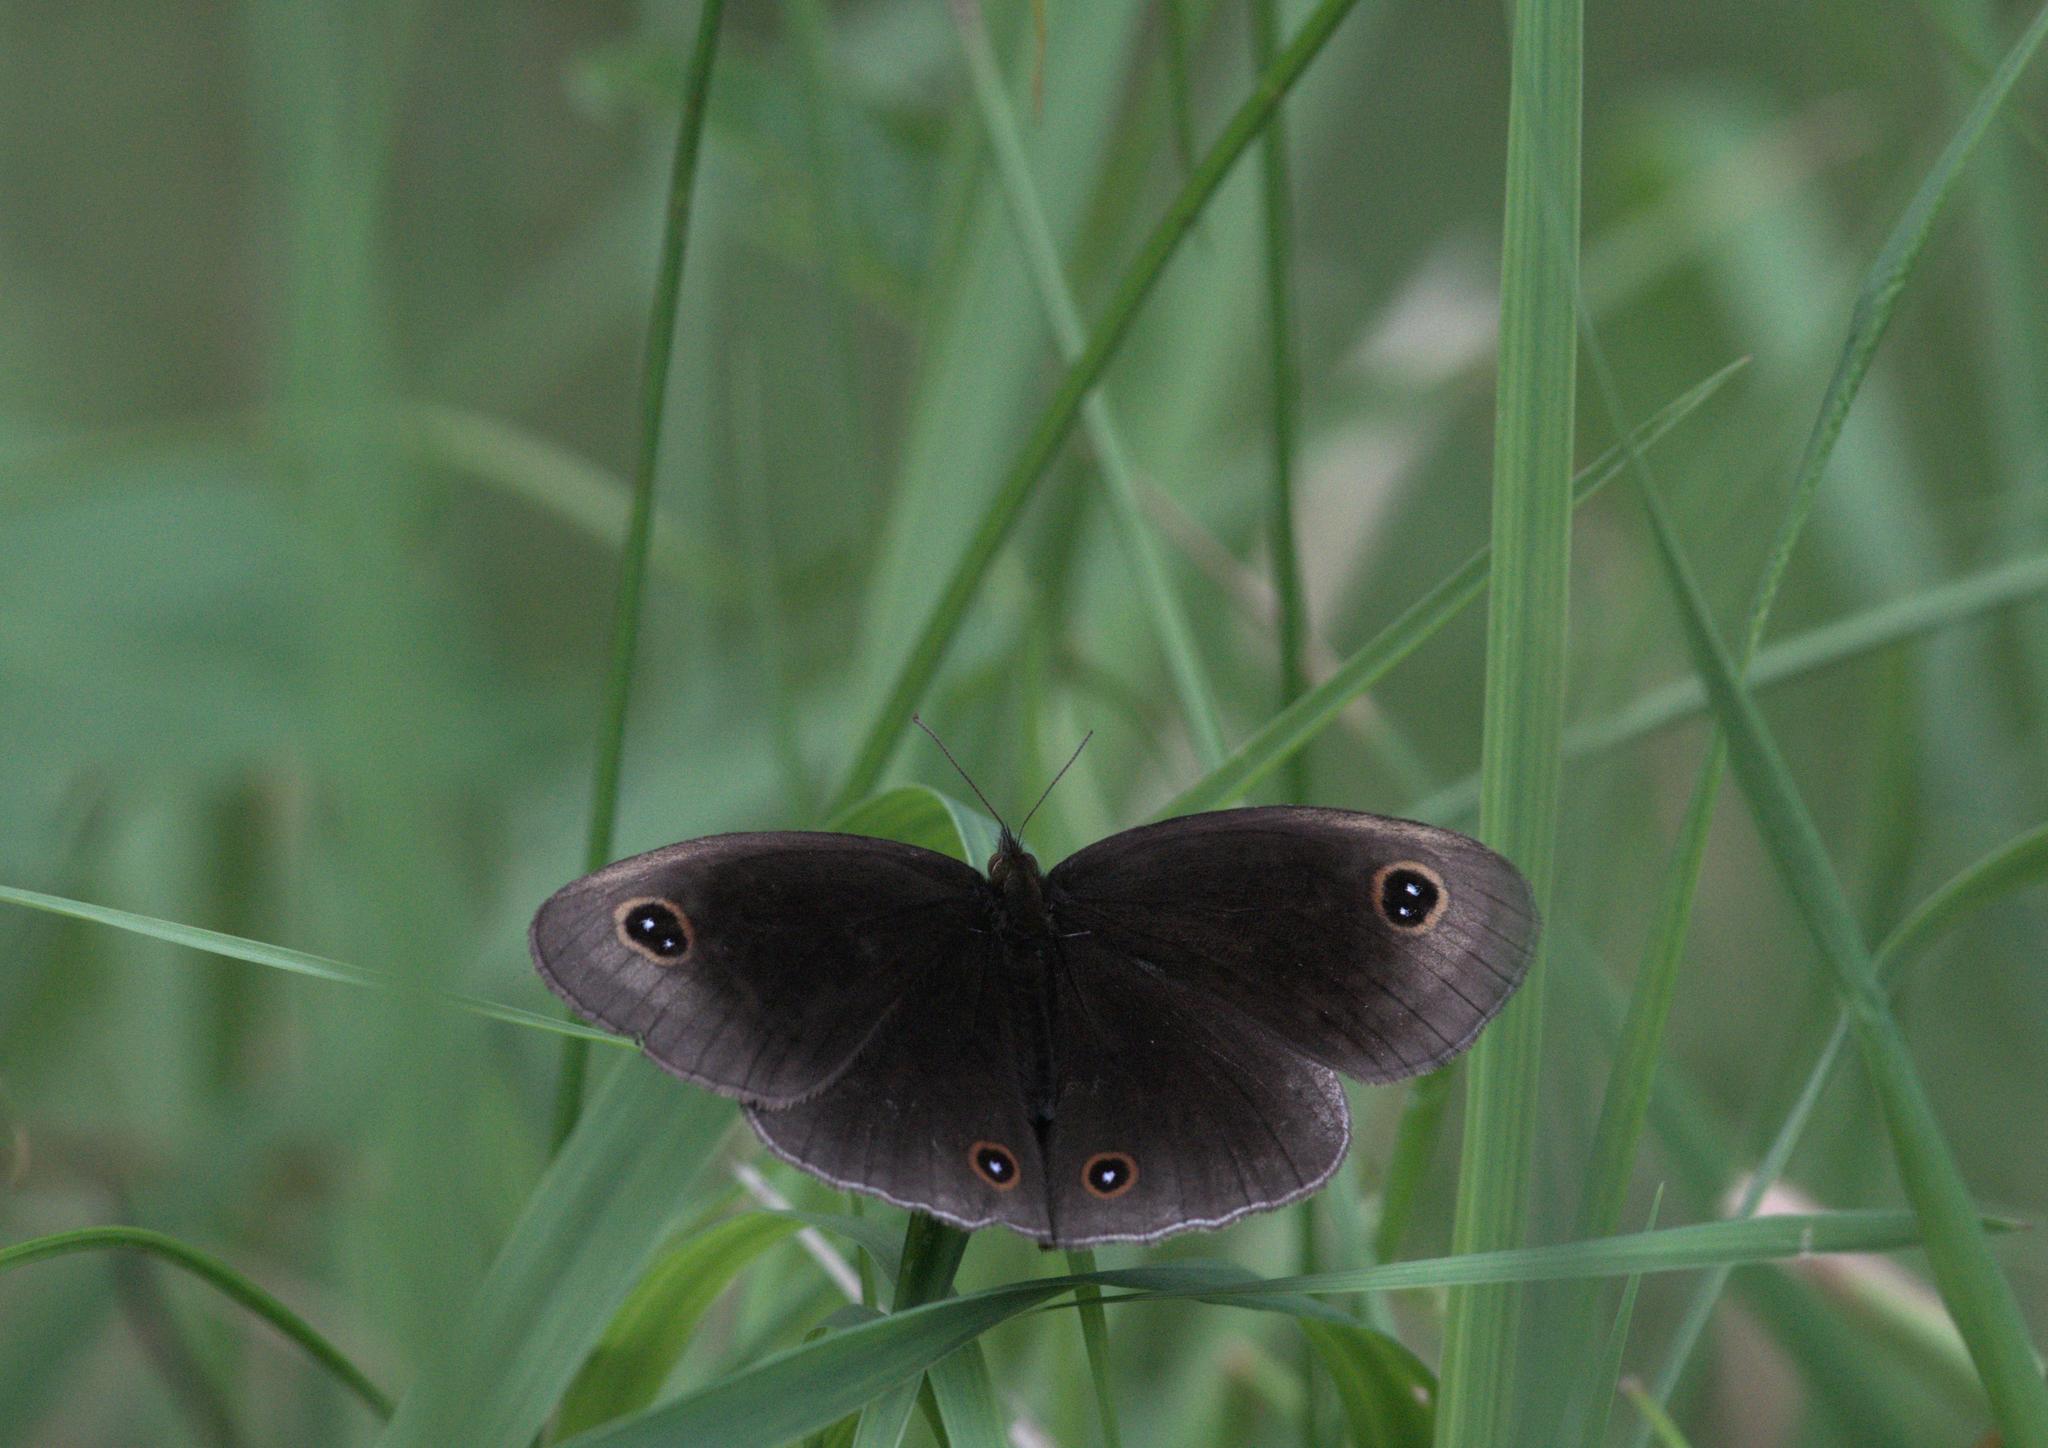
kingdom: Animalia
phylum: Arthropoda
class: Insecta
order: Lepidoptera
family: Nymphalidae
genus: Callerebia
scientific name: Callerebia scanda
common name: Pallid argus
